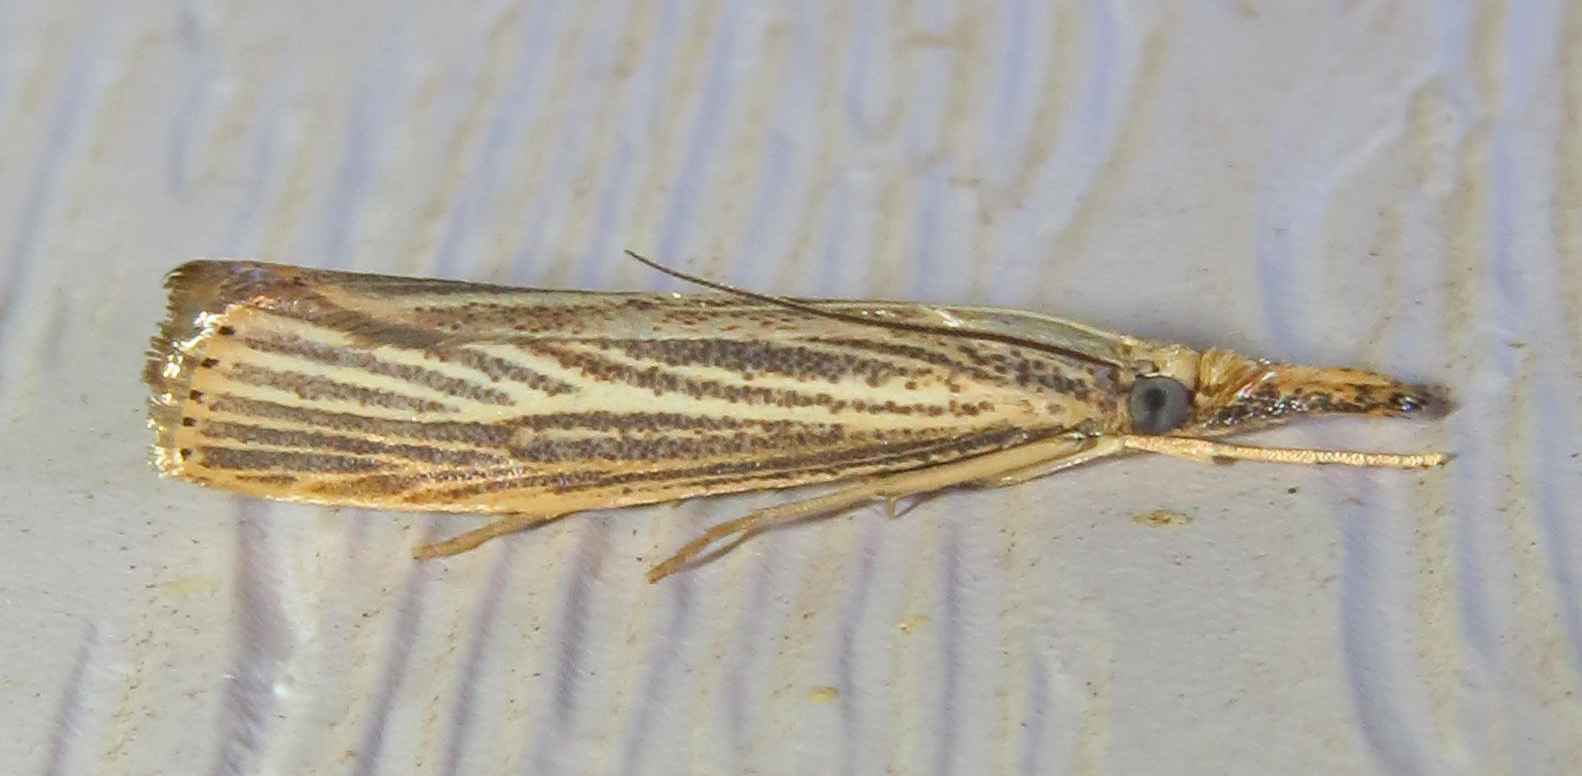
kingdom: Animalia
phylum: Arthropoda
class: Insecta
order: Lepidoptera
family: Crambidae
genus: Agriphila
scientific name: Agriphila vulgivagellus
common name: Vagabond crambus moth
